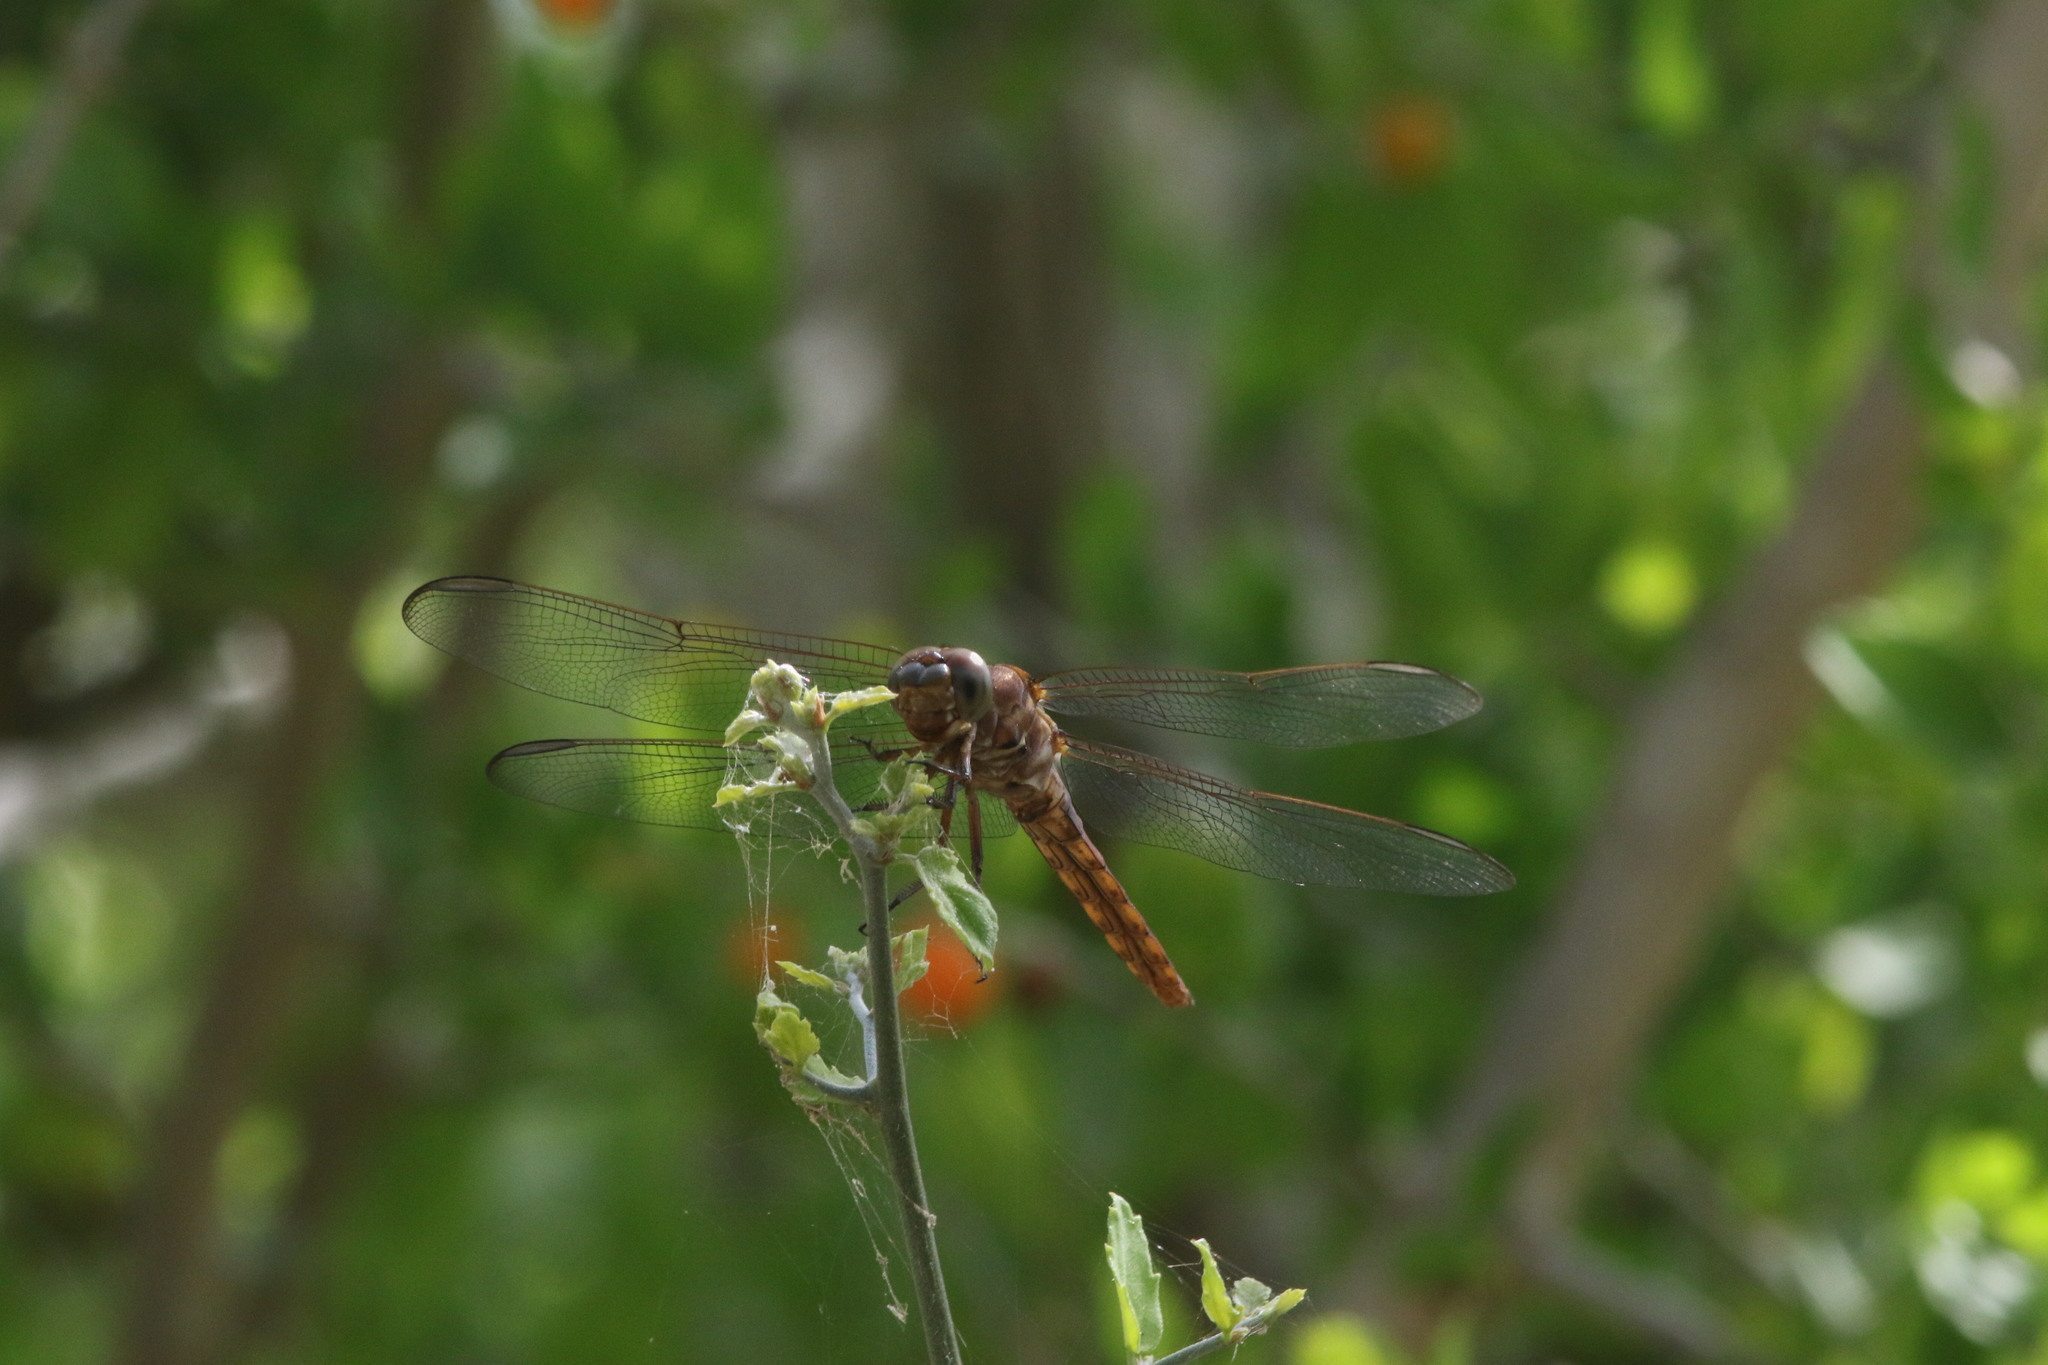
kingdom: Animalia
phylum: Arthropoda
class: Insecta
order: Odonata
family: Libellulidae
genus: Orthemis
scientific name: Orthemis ferruginea
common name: Roseate skimmer
